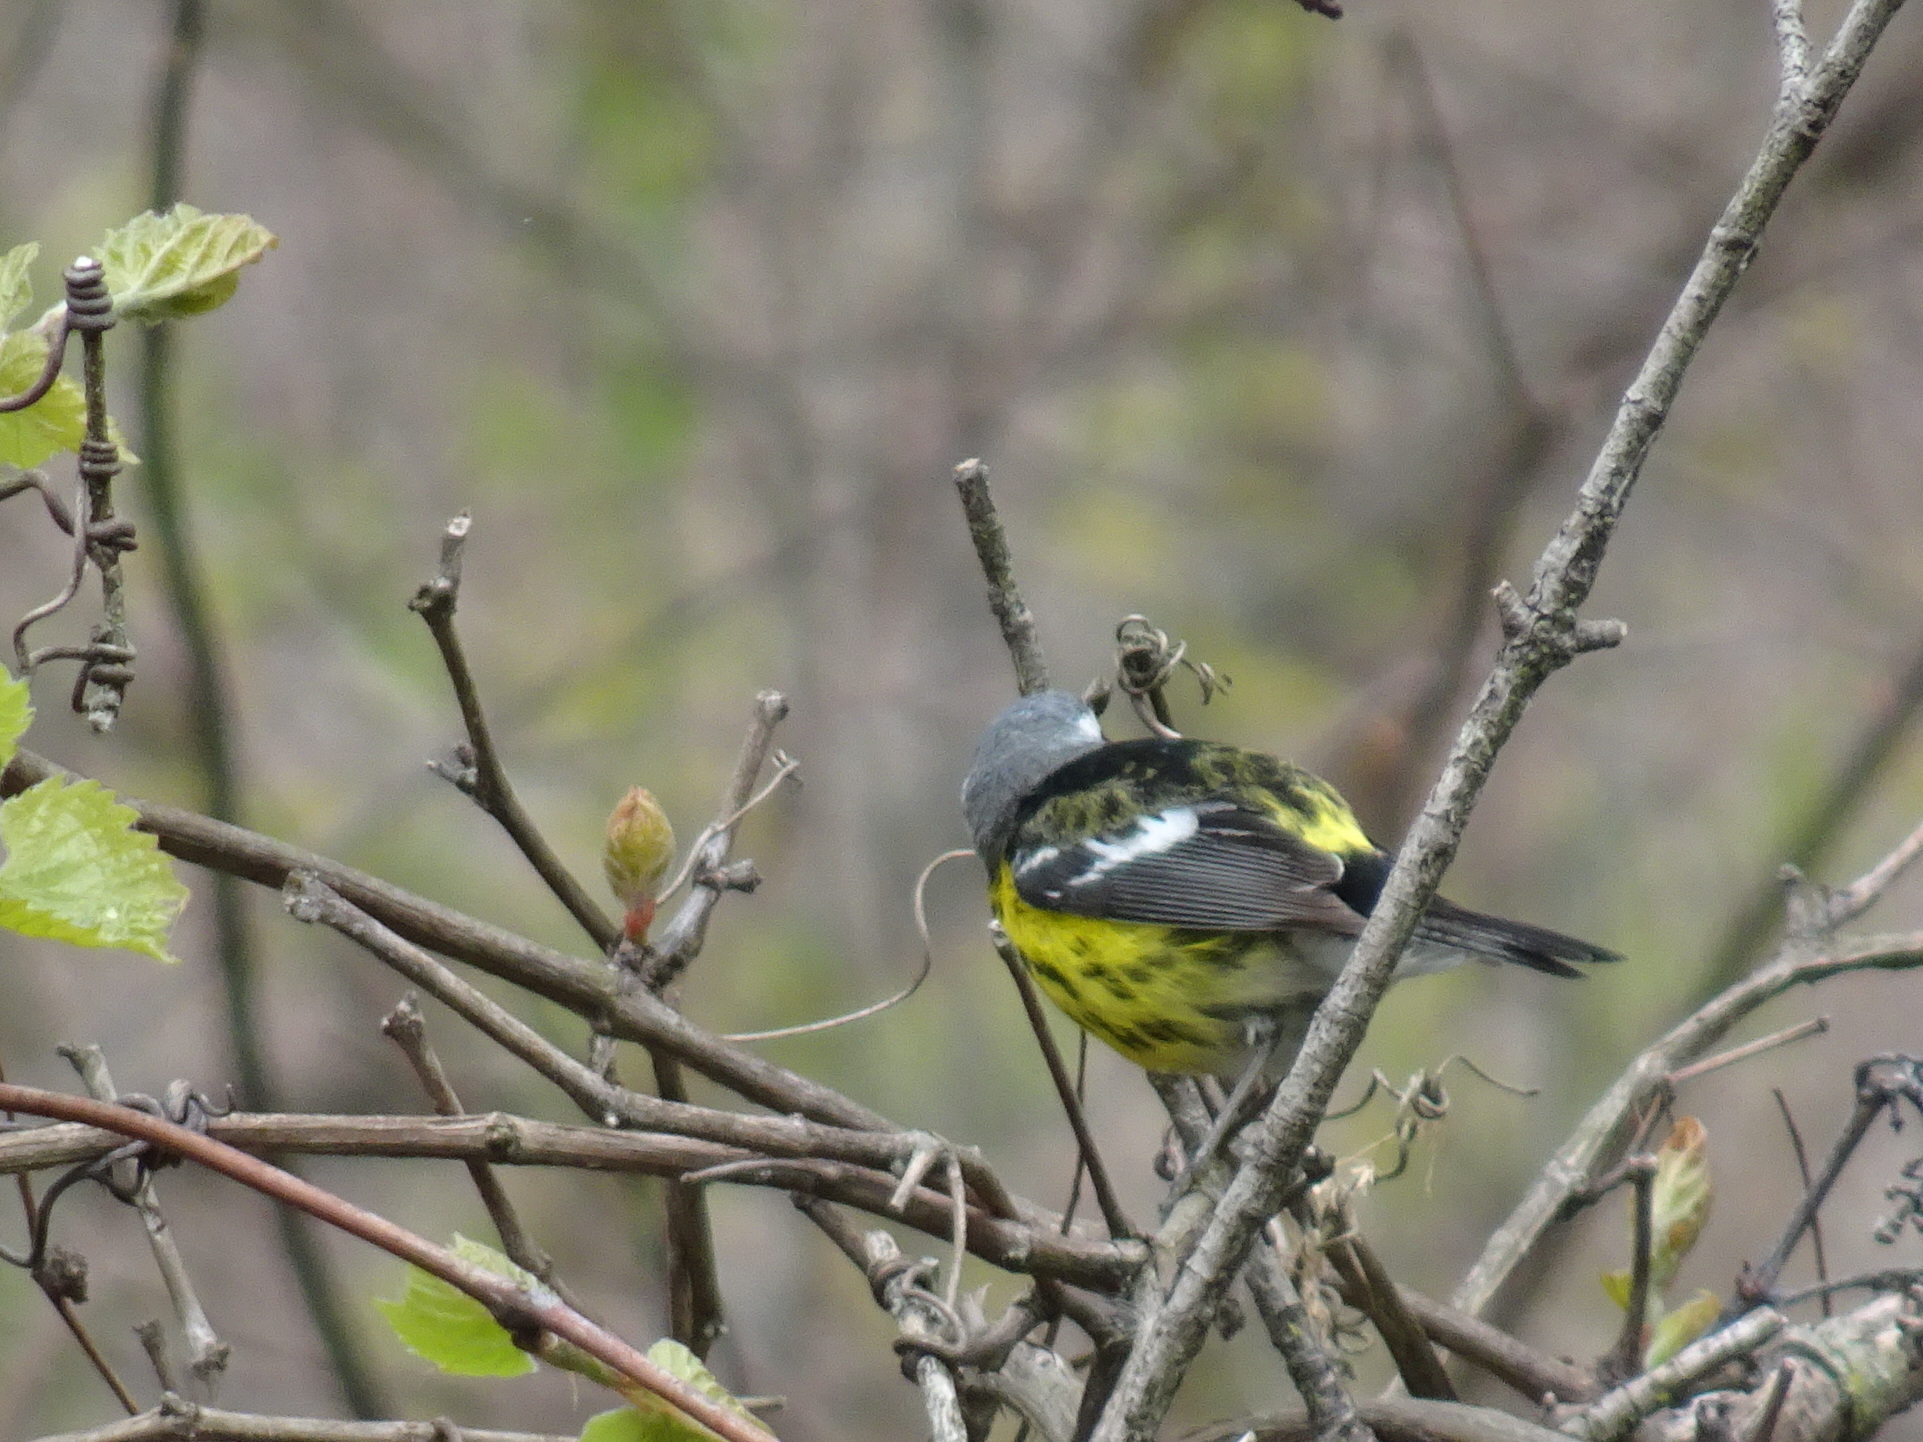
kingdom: Animalia
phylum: Chordata
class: Aves
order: Passeriformes
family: Parulidae
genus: Setophaga
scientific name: Setophaga magnolia
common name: Magnolia warbler
